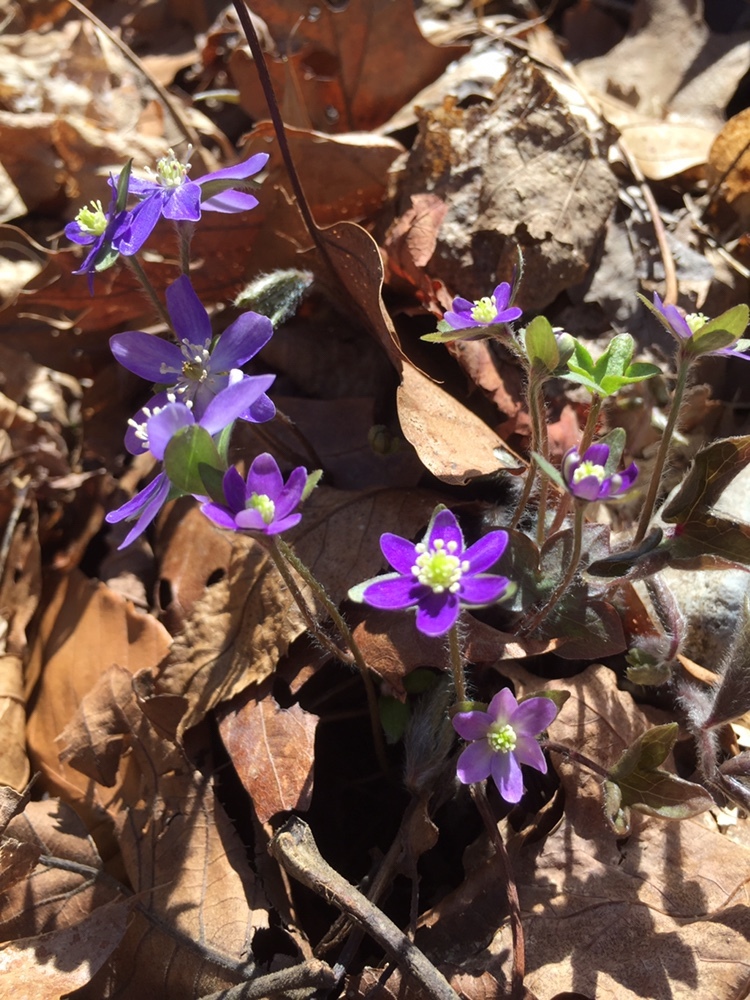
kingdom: Plantae
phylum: Tracheophyta
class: Magnoliopsida
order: Ranunculales
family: Ranunculaceae
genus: Hepatica
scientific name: Hepatica acutiloba
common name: Sharp-lobed hepatica
